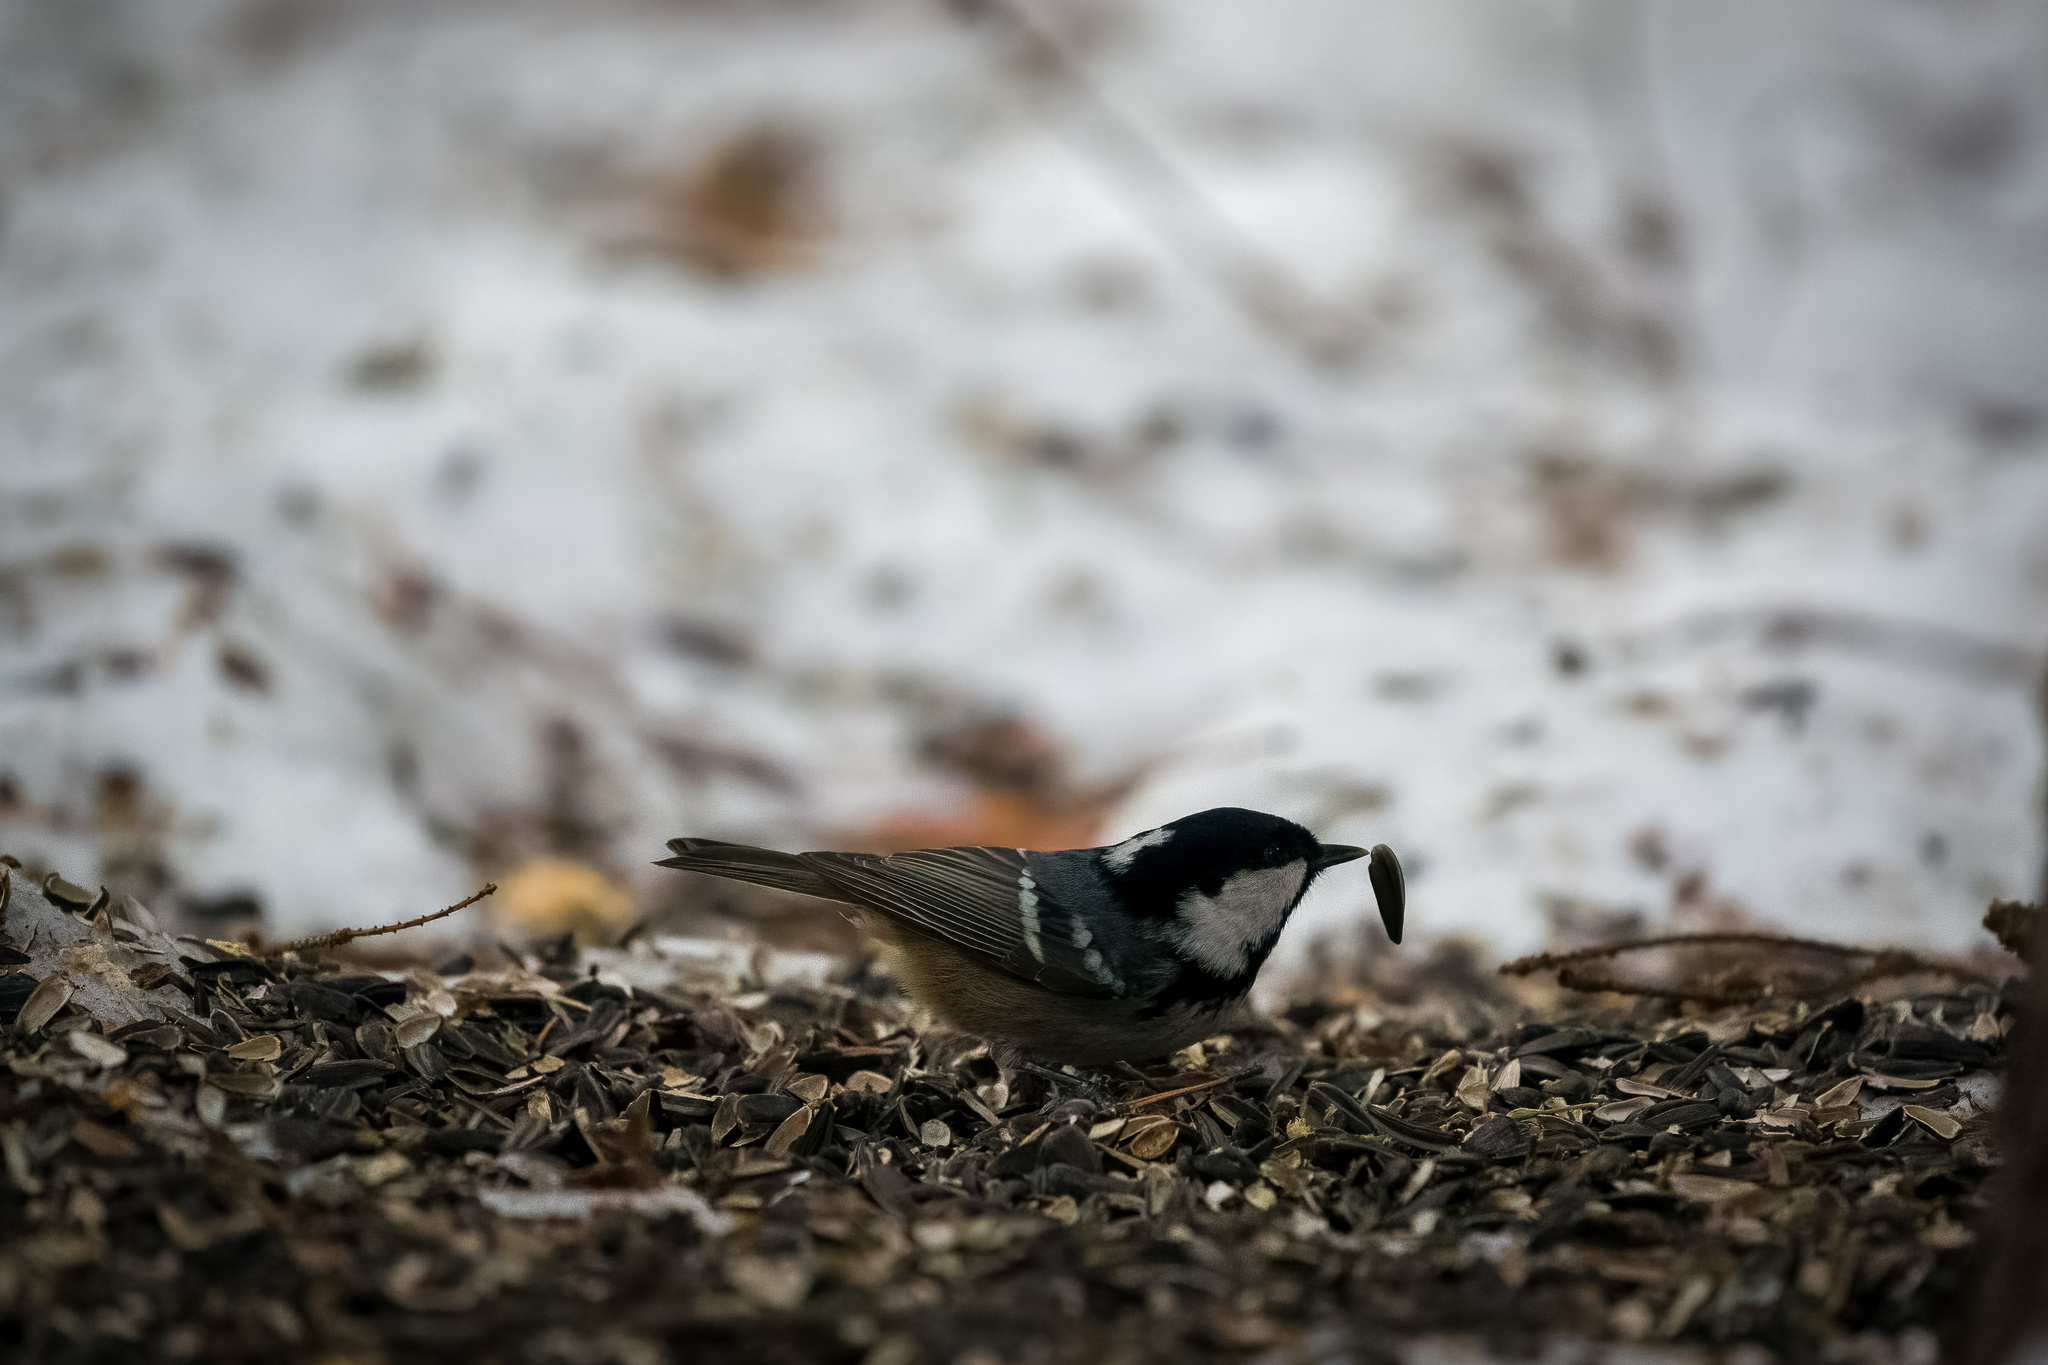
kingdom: Animalia
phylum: Chordata
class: Aves
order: Passeriformes
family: Paridae
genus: Periparus
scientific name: Periparus ater
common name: Coal tit
